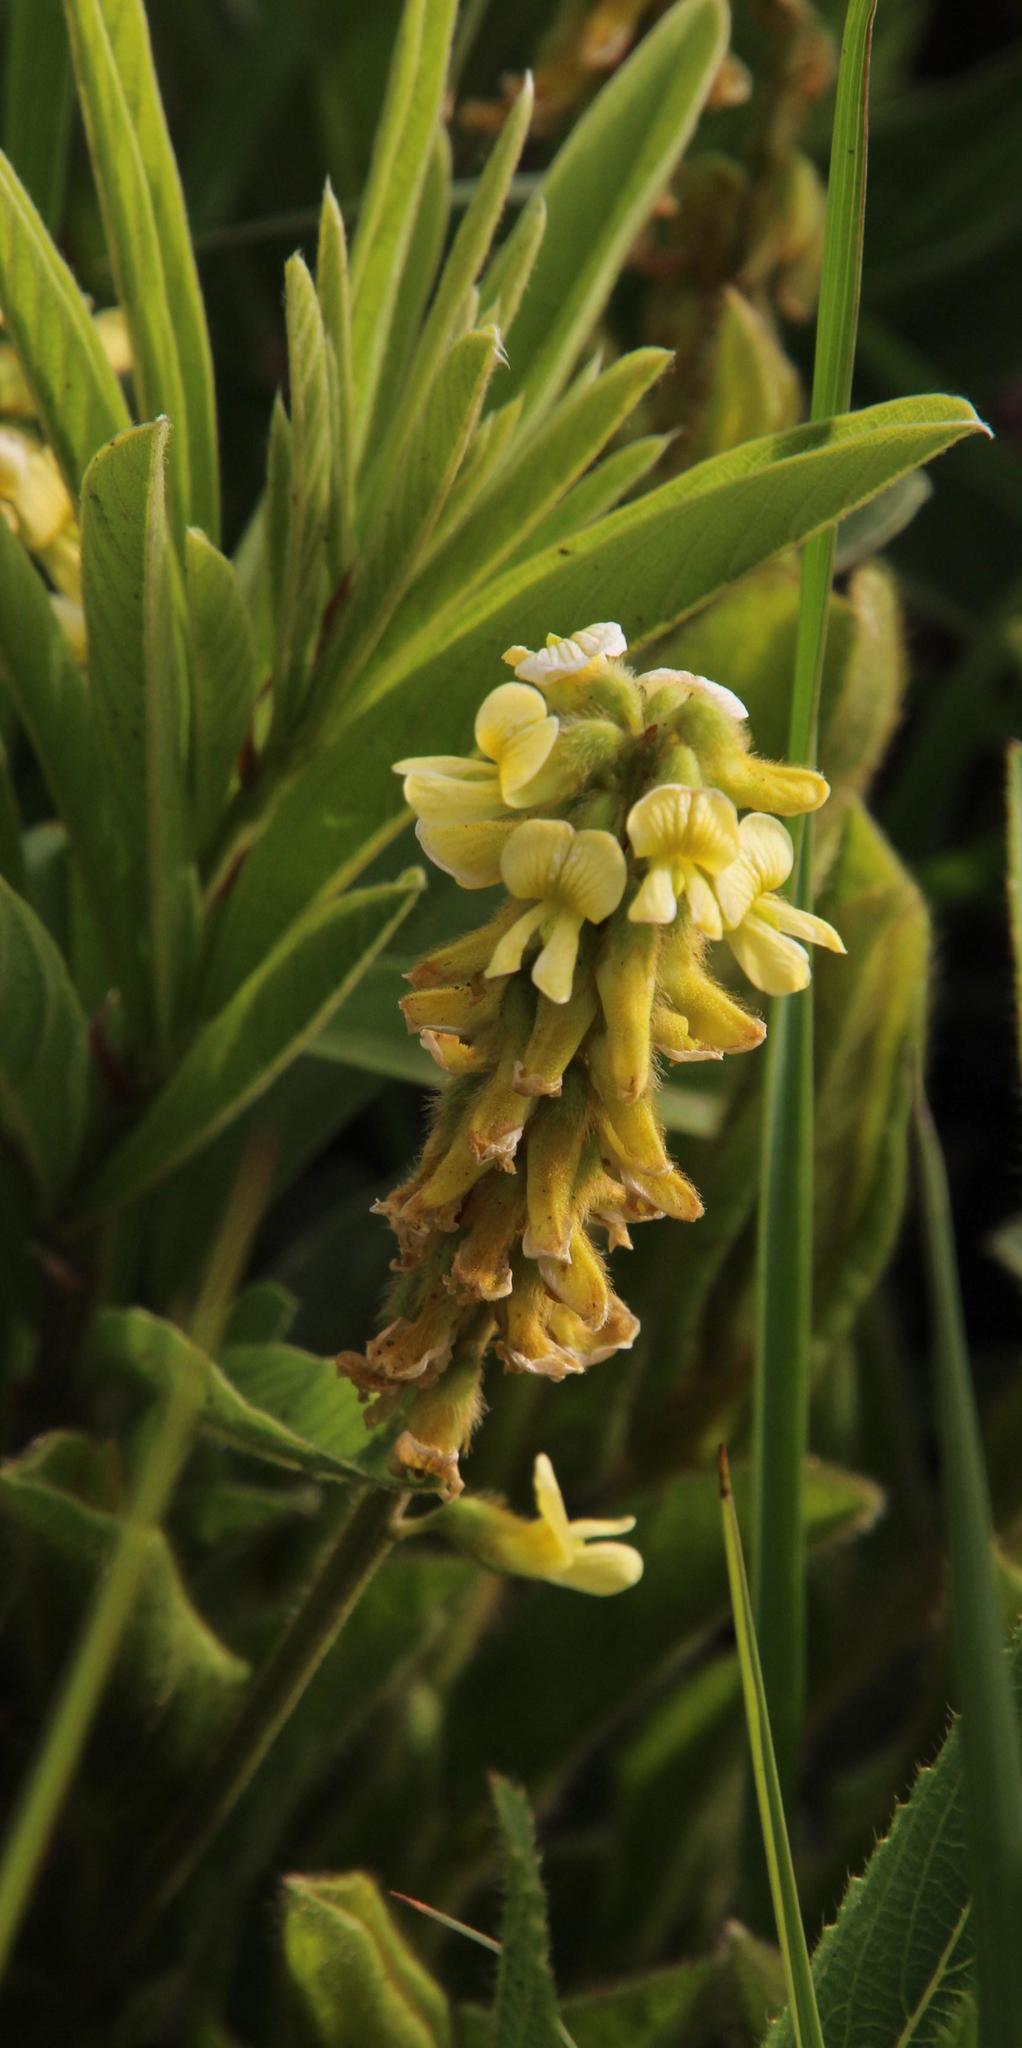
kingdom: Plantae
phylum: Tracheophyta
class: Magnoliopsida
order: Fabales
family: Fabaceae
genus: Eriosema
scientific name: Eriosema kraussianum
